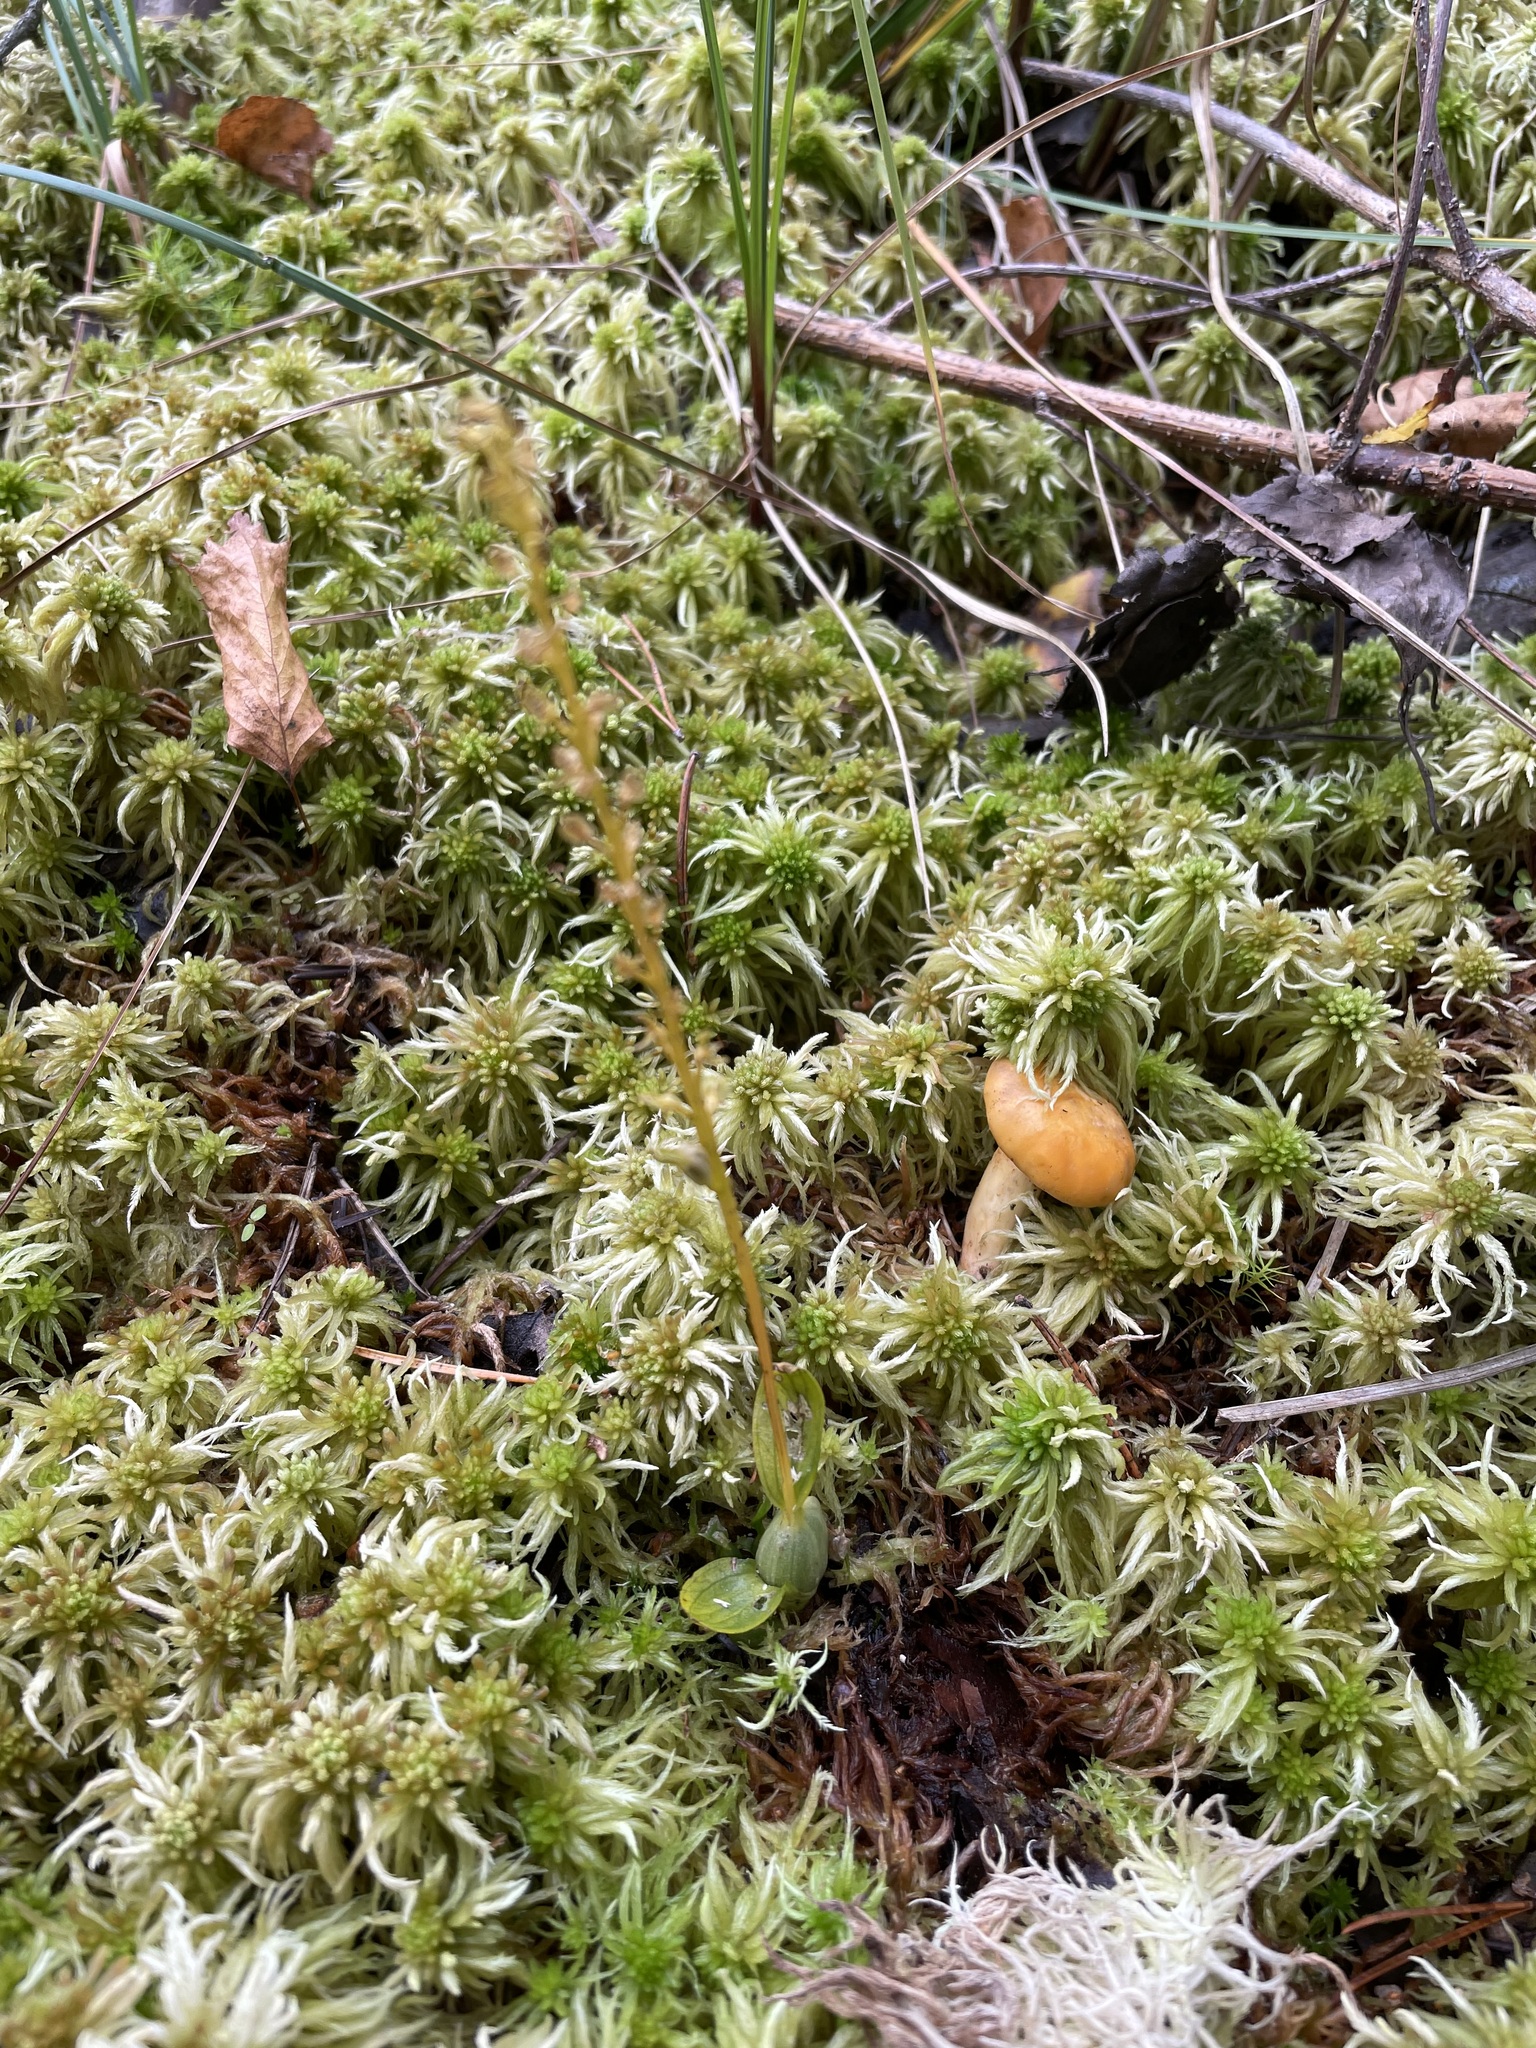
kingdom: Plantae
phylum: Tracheophyta
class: Liliopsida
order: Asparagales
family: Orchidaceae
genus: Hammarbya
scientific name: Hammarbya paludosa
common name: Bog orchid
